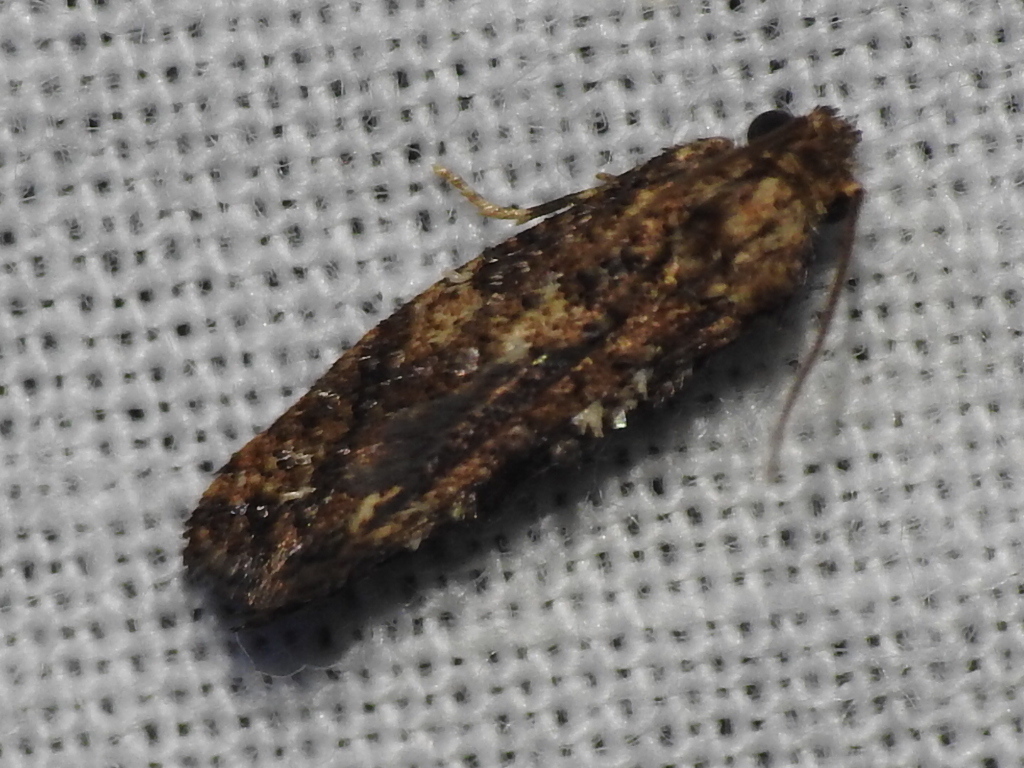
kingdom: Animalia
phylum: Arthropoda
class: Insecta
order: Lepidoptera
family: Tineidae
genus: Acrolophus
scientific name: Acrolophus cressoni
